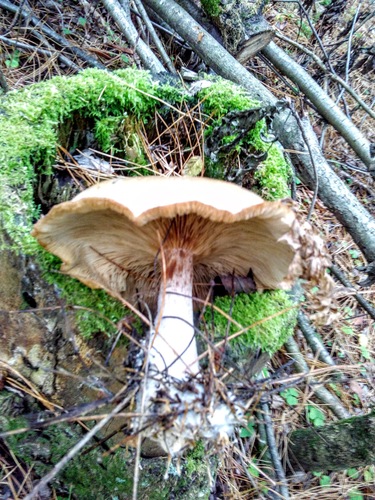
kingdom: Fungi
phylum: Basidiomycota
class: Agaricomycetes
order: Agaricales
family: Tricholomataceae
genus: Clitocybe
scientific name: Clitocybe nebularis
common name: Clouded agaric
